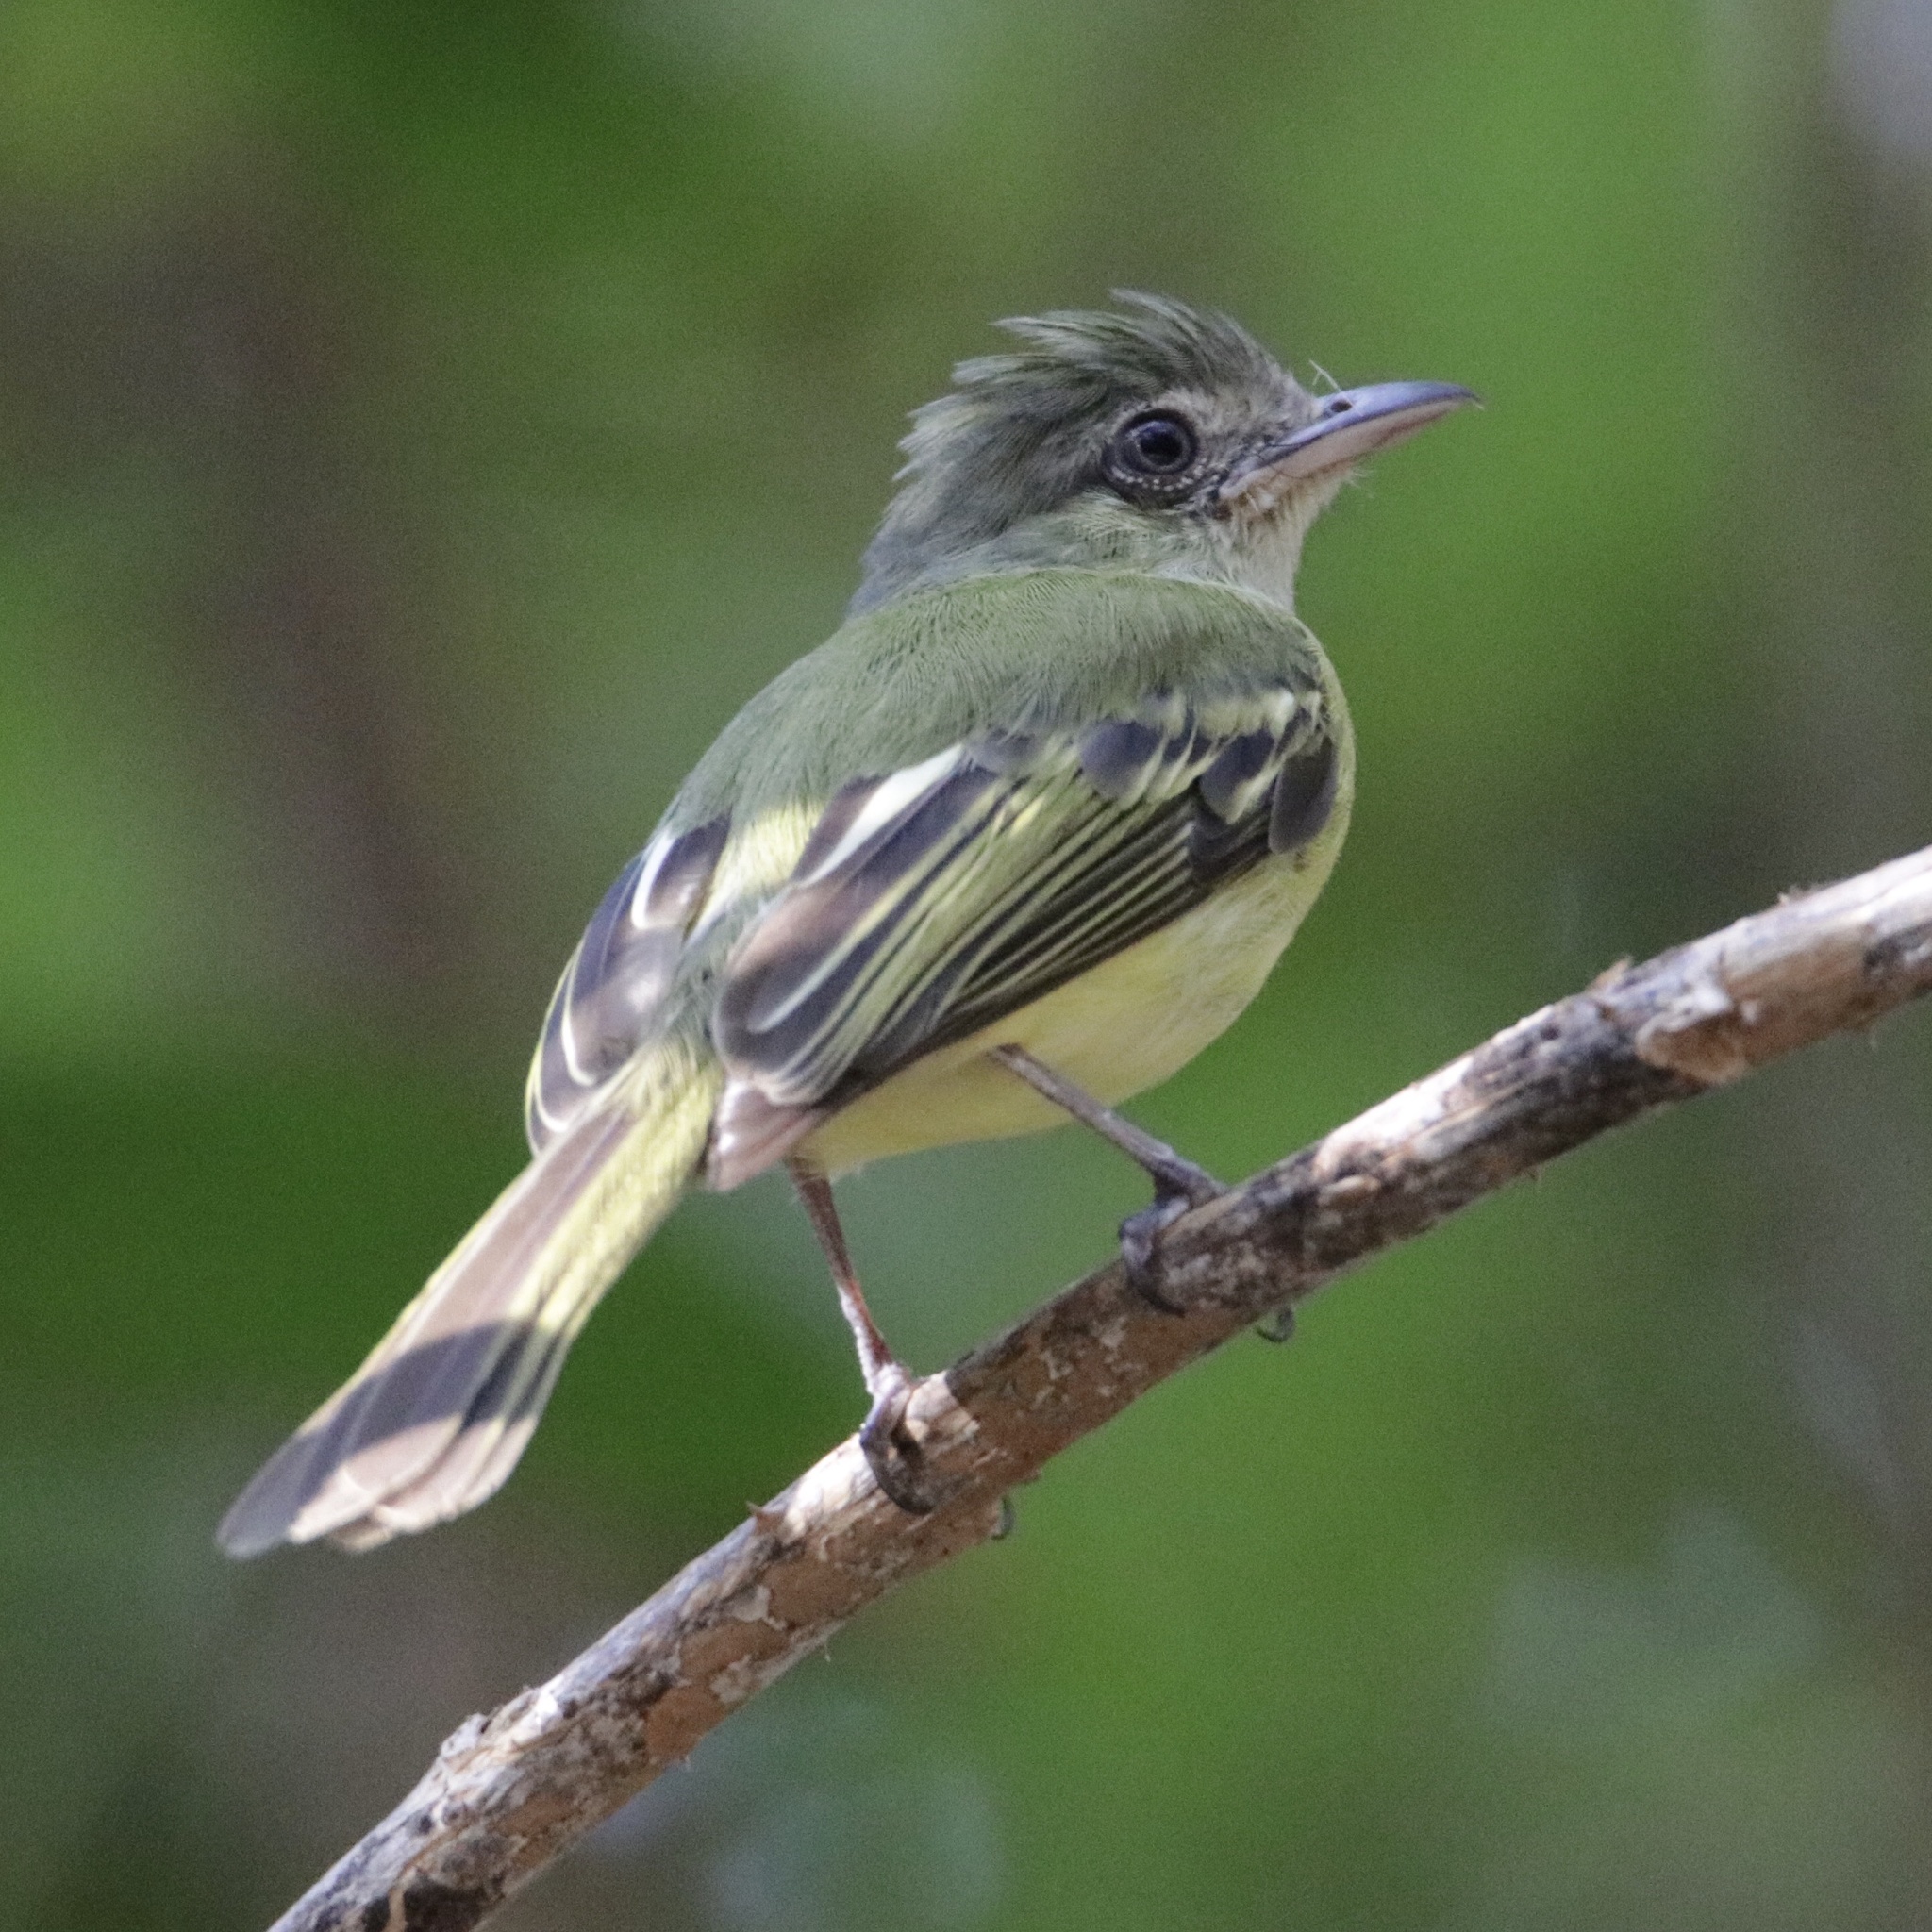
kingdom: Animalia
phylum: Chordata
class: Aves
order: Passeriformes
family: Tyrannidae
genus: Tolmomyias
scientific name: Tolmomyias sulphurescens
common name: Yellow-olive flycatcher
